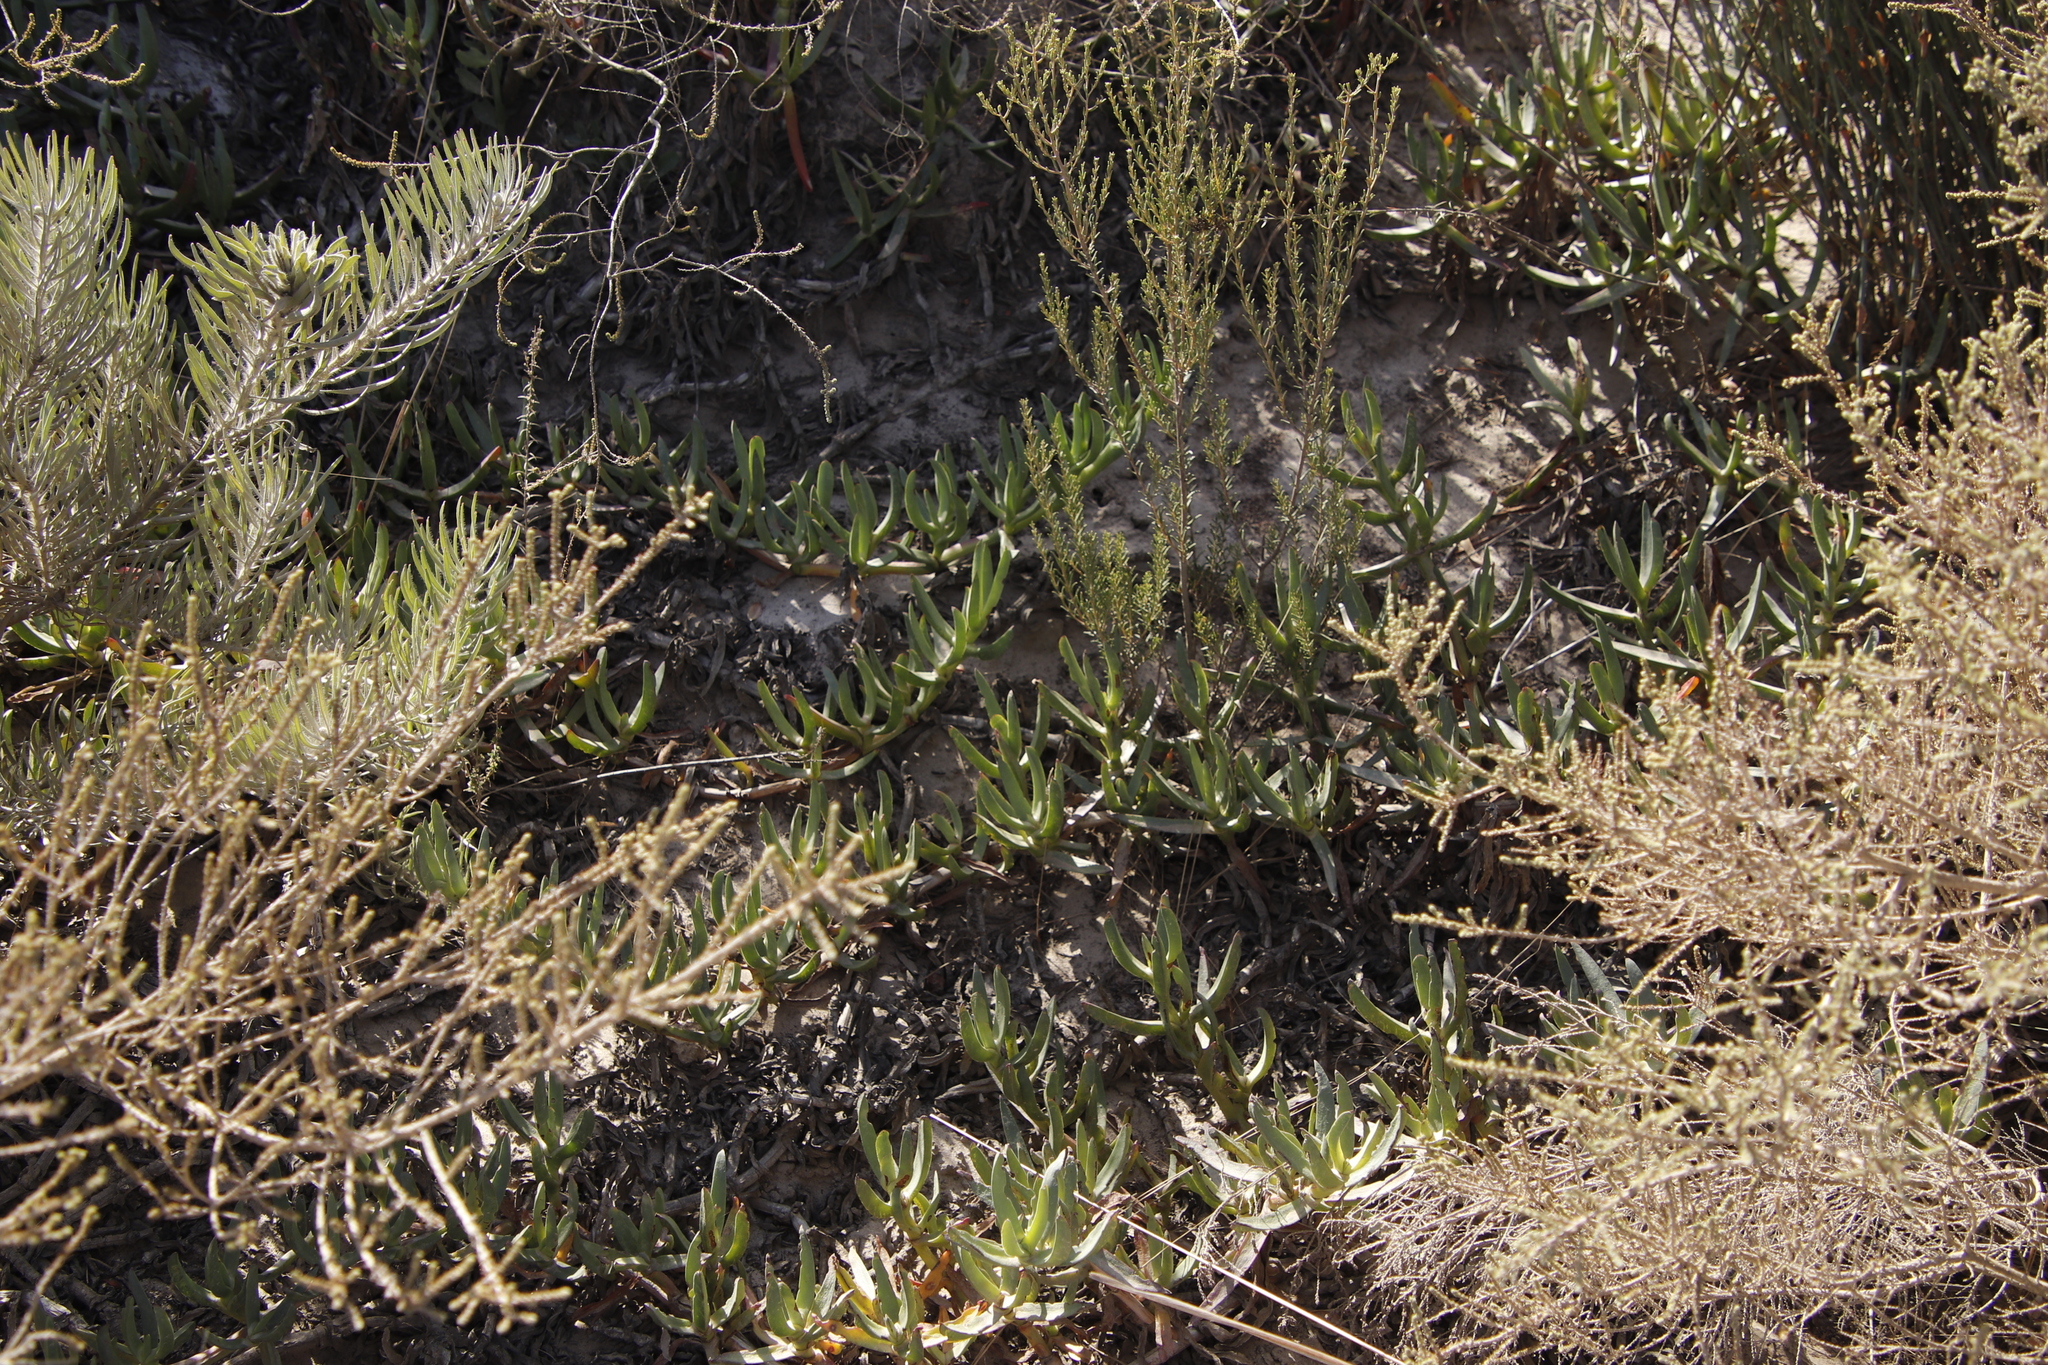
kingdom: Plantae
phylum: Tracheophyta
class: Magnoliopsida
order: Caryophyllales
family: Aizoaceae
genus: Carpobrotus
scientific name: Carpobrotus edulis
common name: Hottentot-fig
